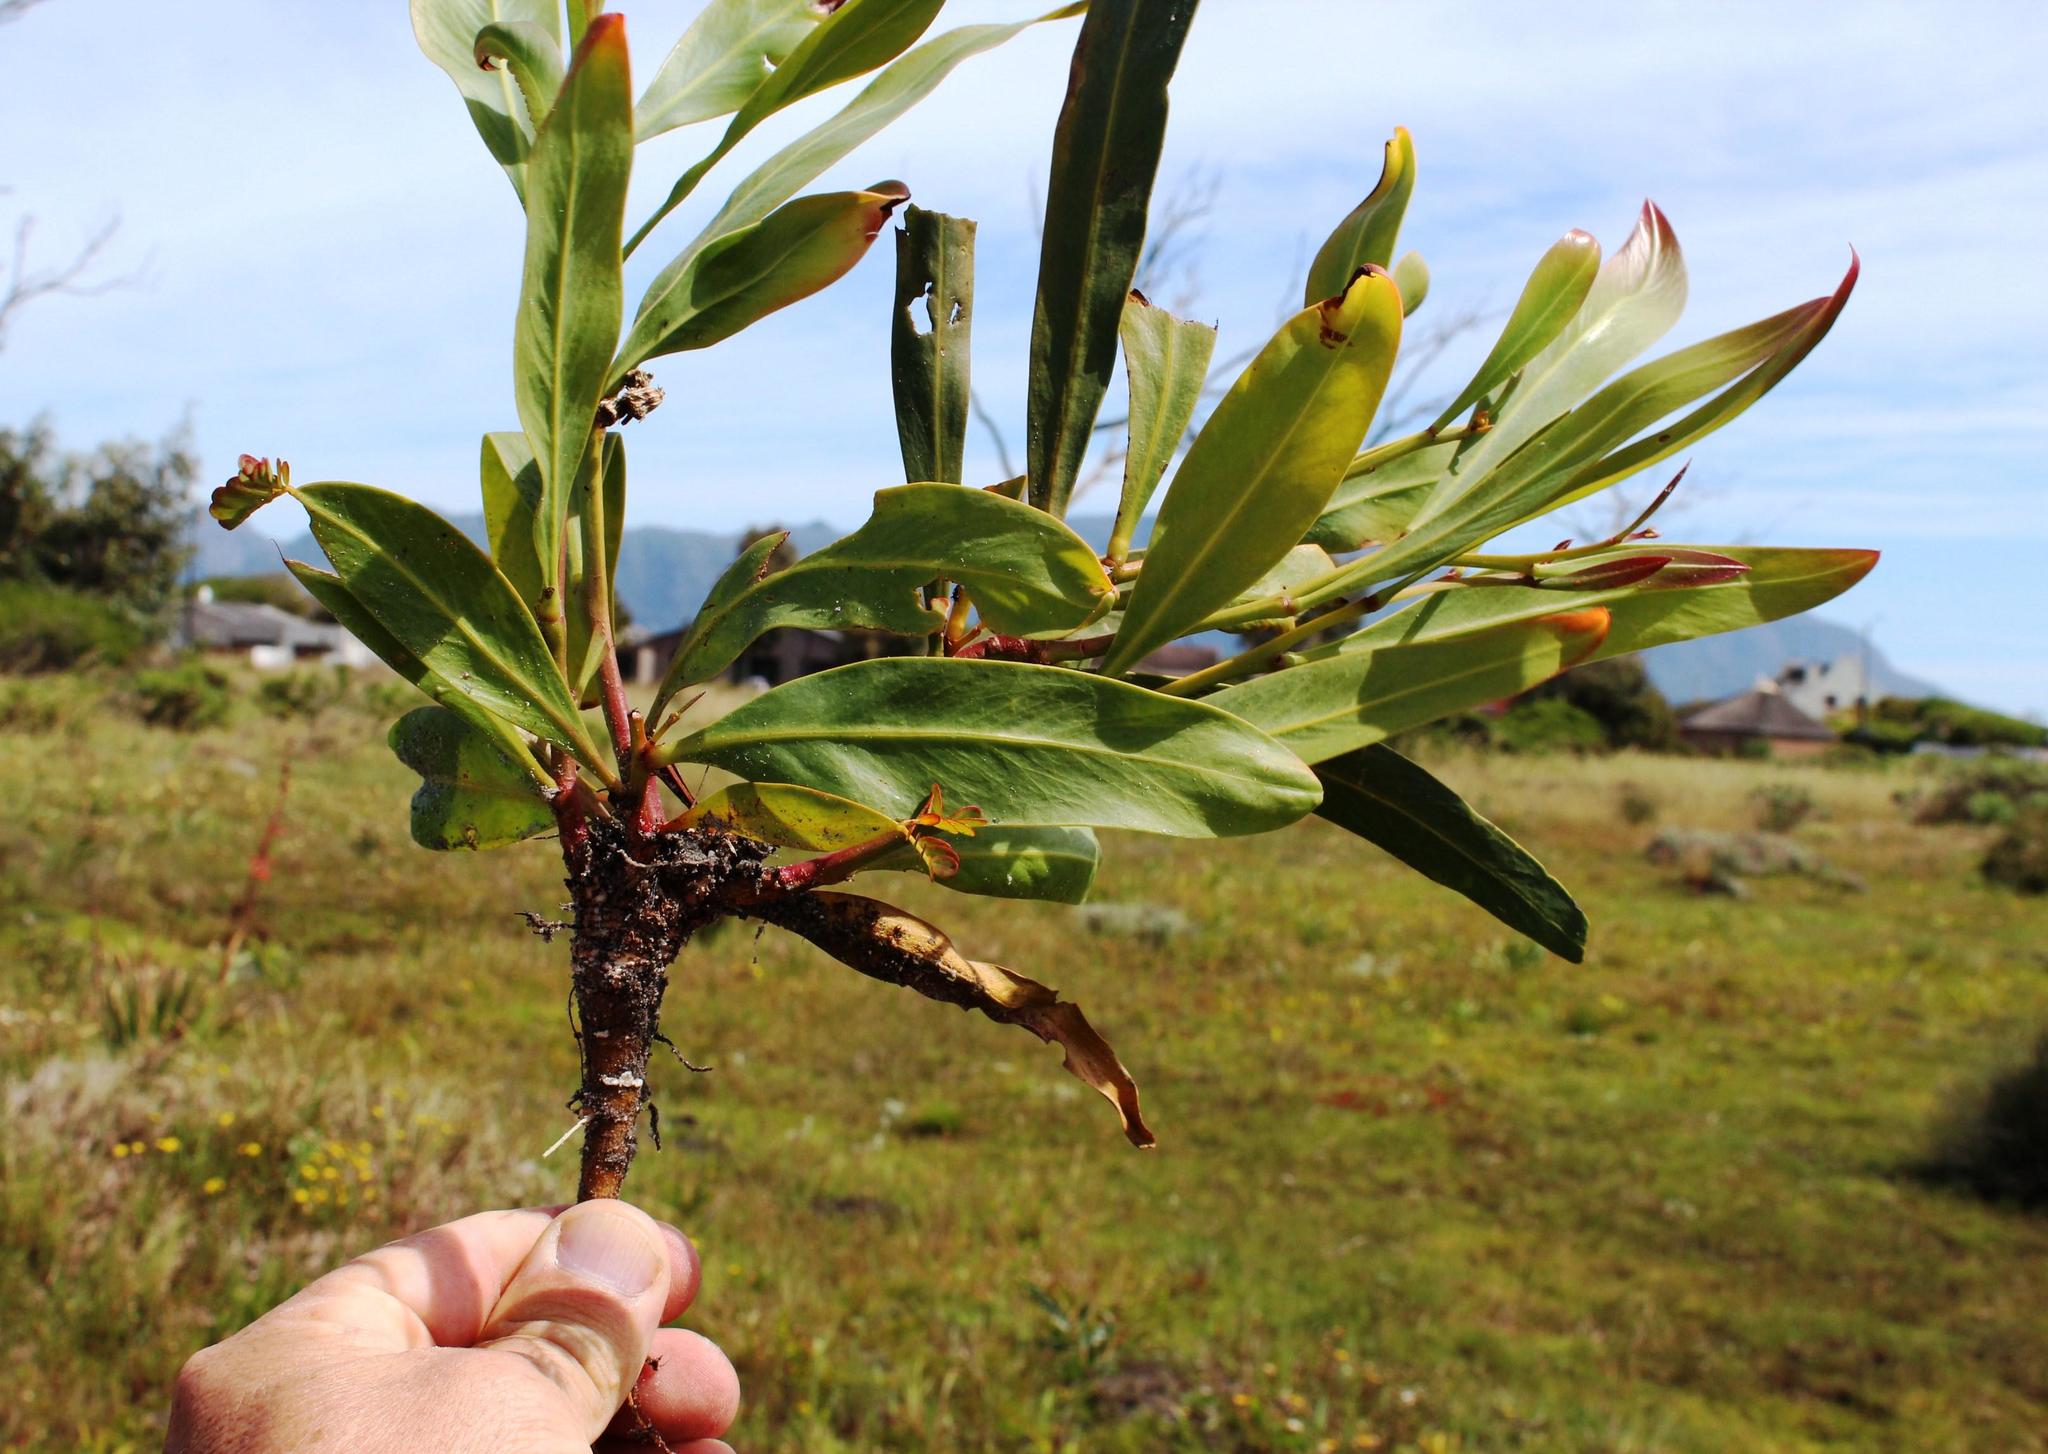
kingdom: Plantae
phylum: Tracheophyta
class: Magnoliopsida
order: Fabales
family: Fabaceae
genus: Acacia
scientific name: Acacia saligna
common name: Orange wattle
